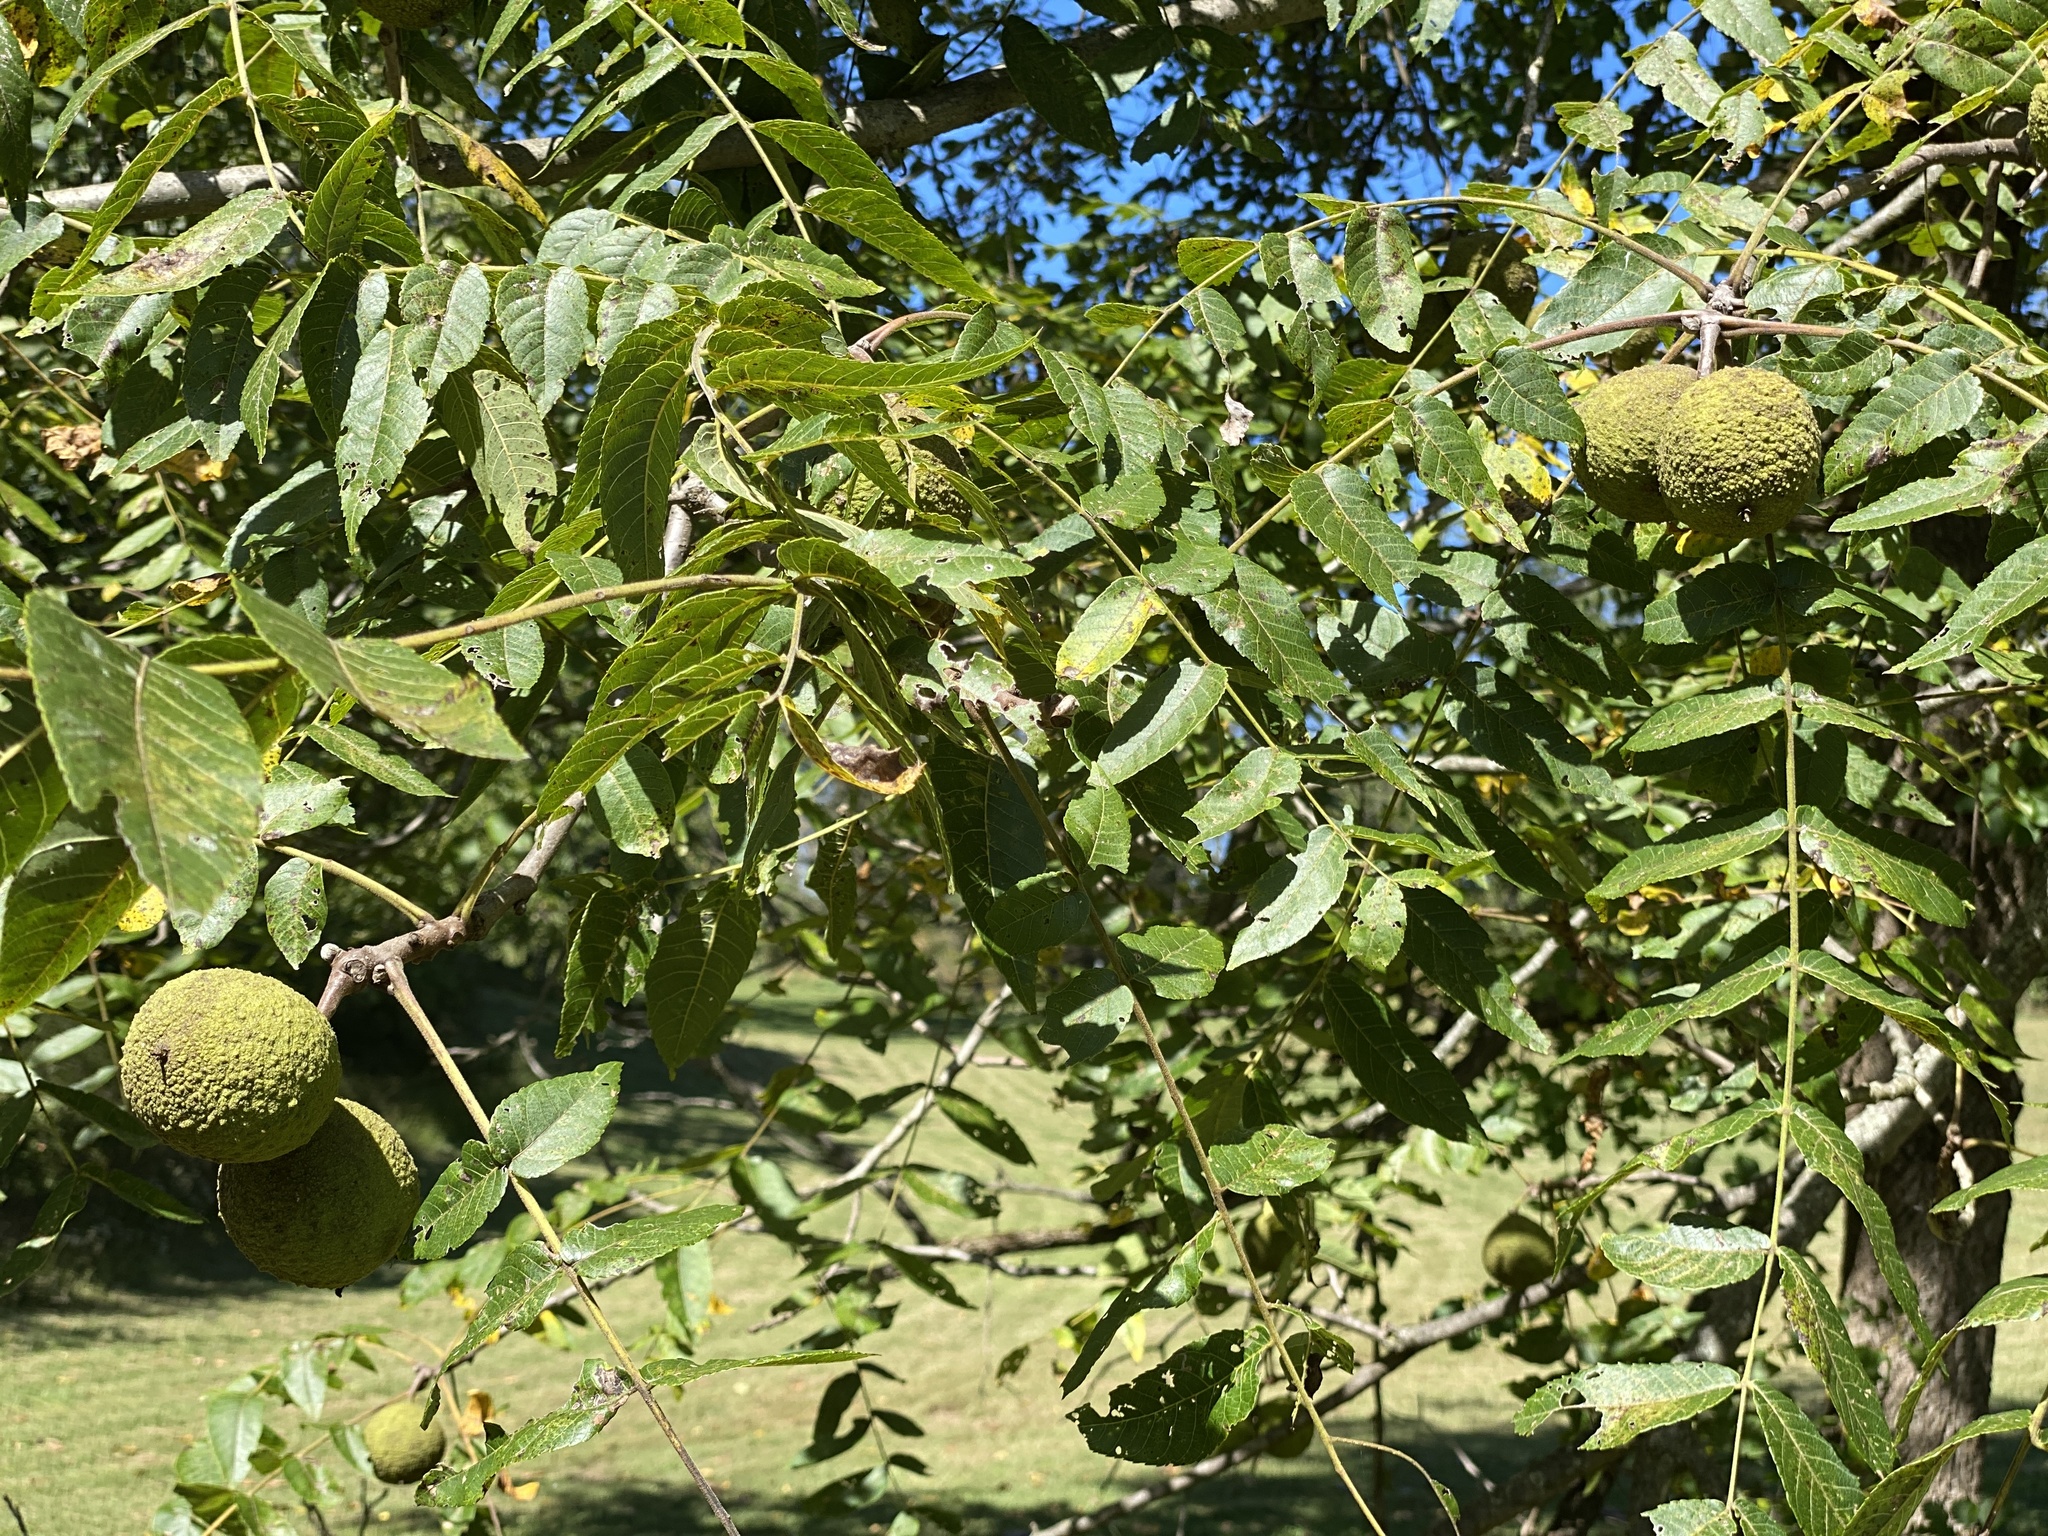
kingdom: Plantae
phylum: Tracheophyta
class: Magnoliopsida
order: Fagales
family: Juglandaceae
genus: Juglans
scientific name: Juglans nigra
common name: Black walnut
